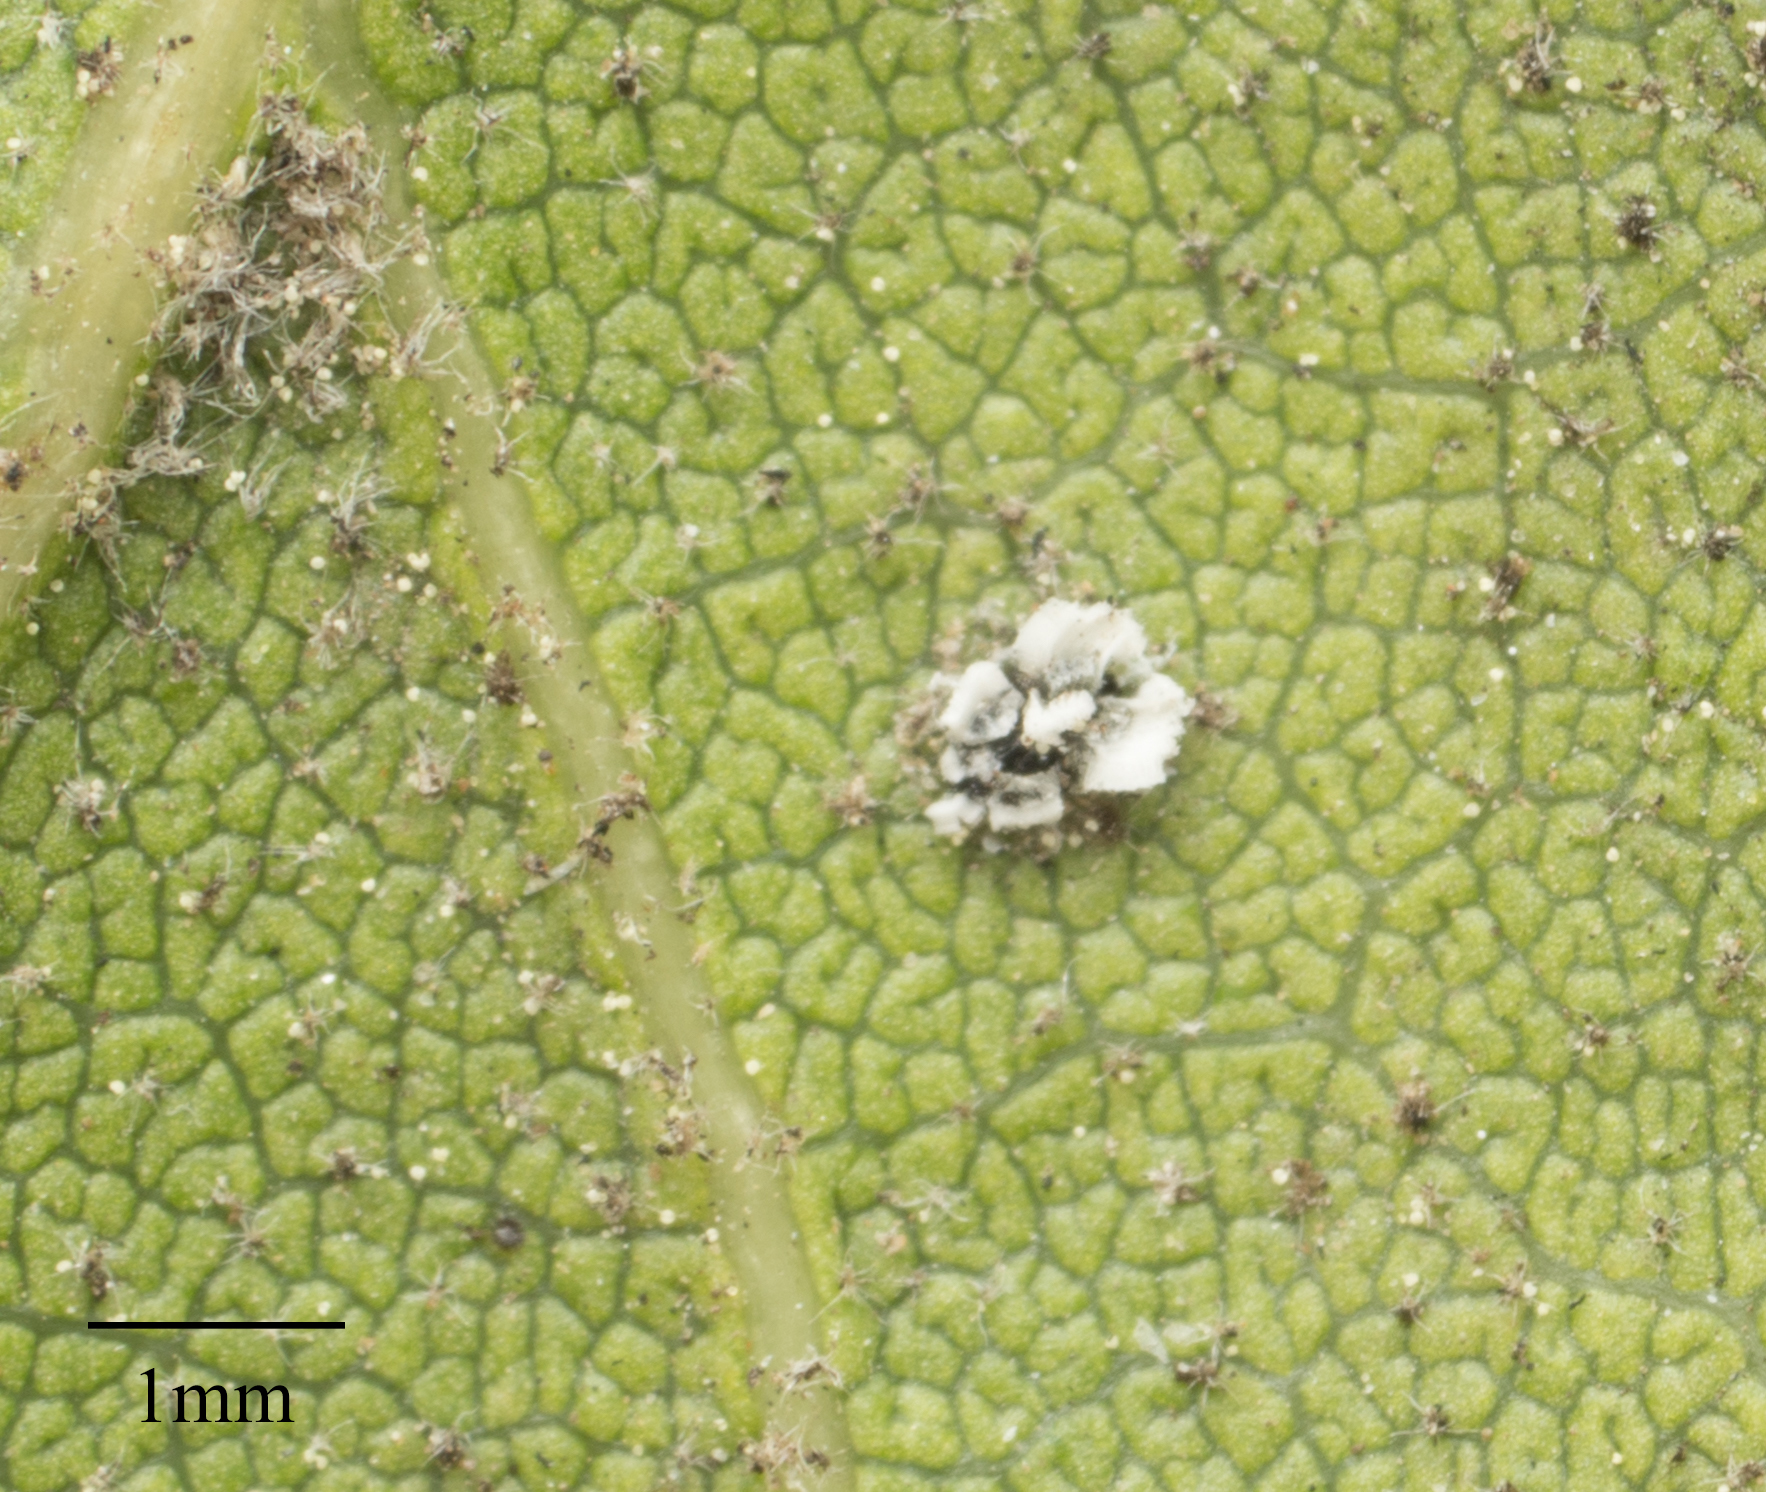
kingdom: Animalia
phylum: Arthropoda
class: Insecta
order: Hemiptera
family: Aleyrodidae
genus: Aleuroplatus
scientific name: Aleuroplatus coronata
